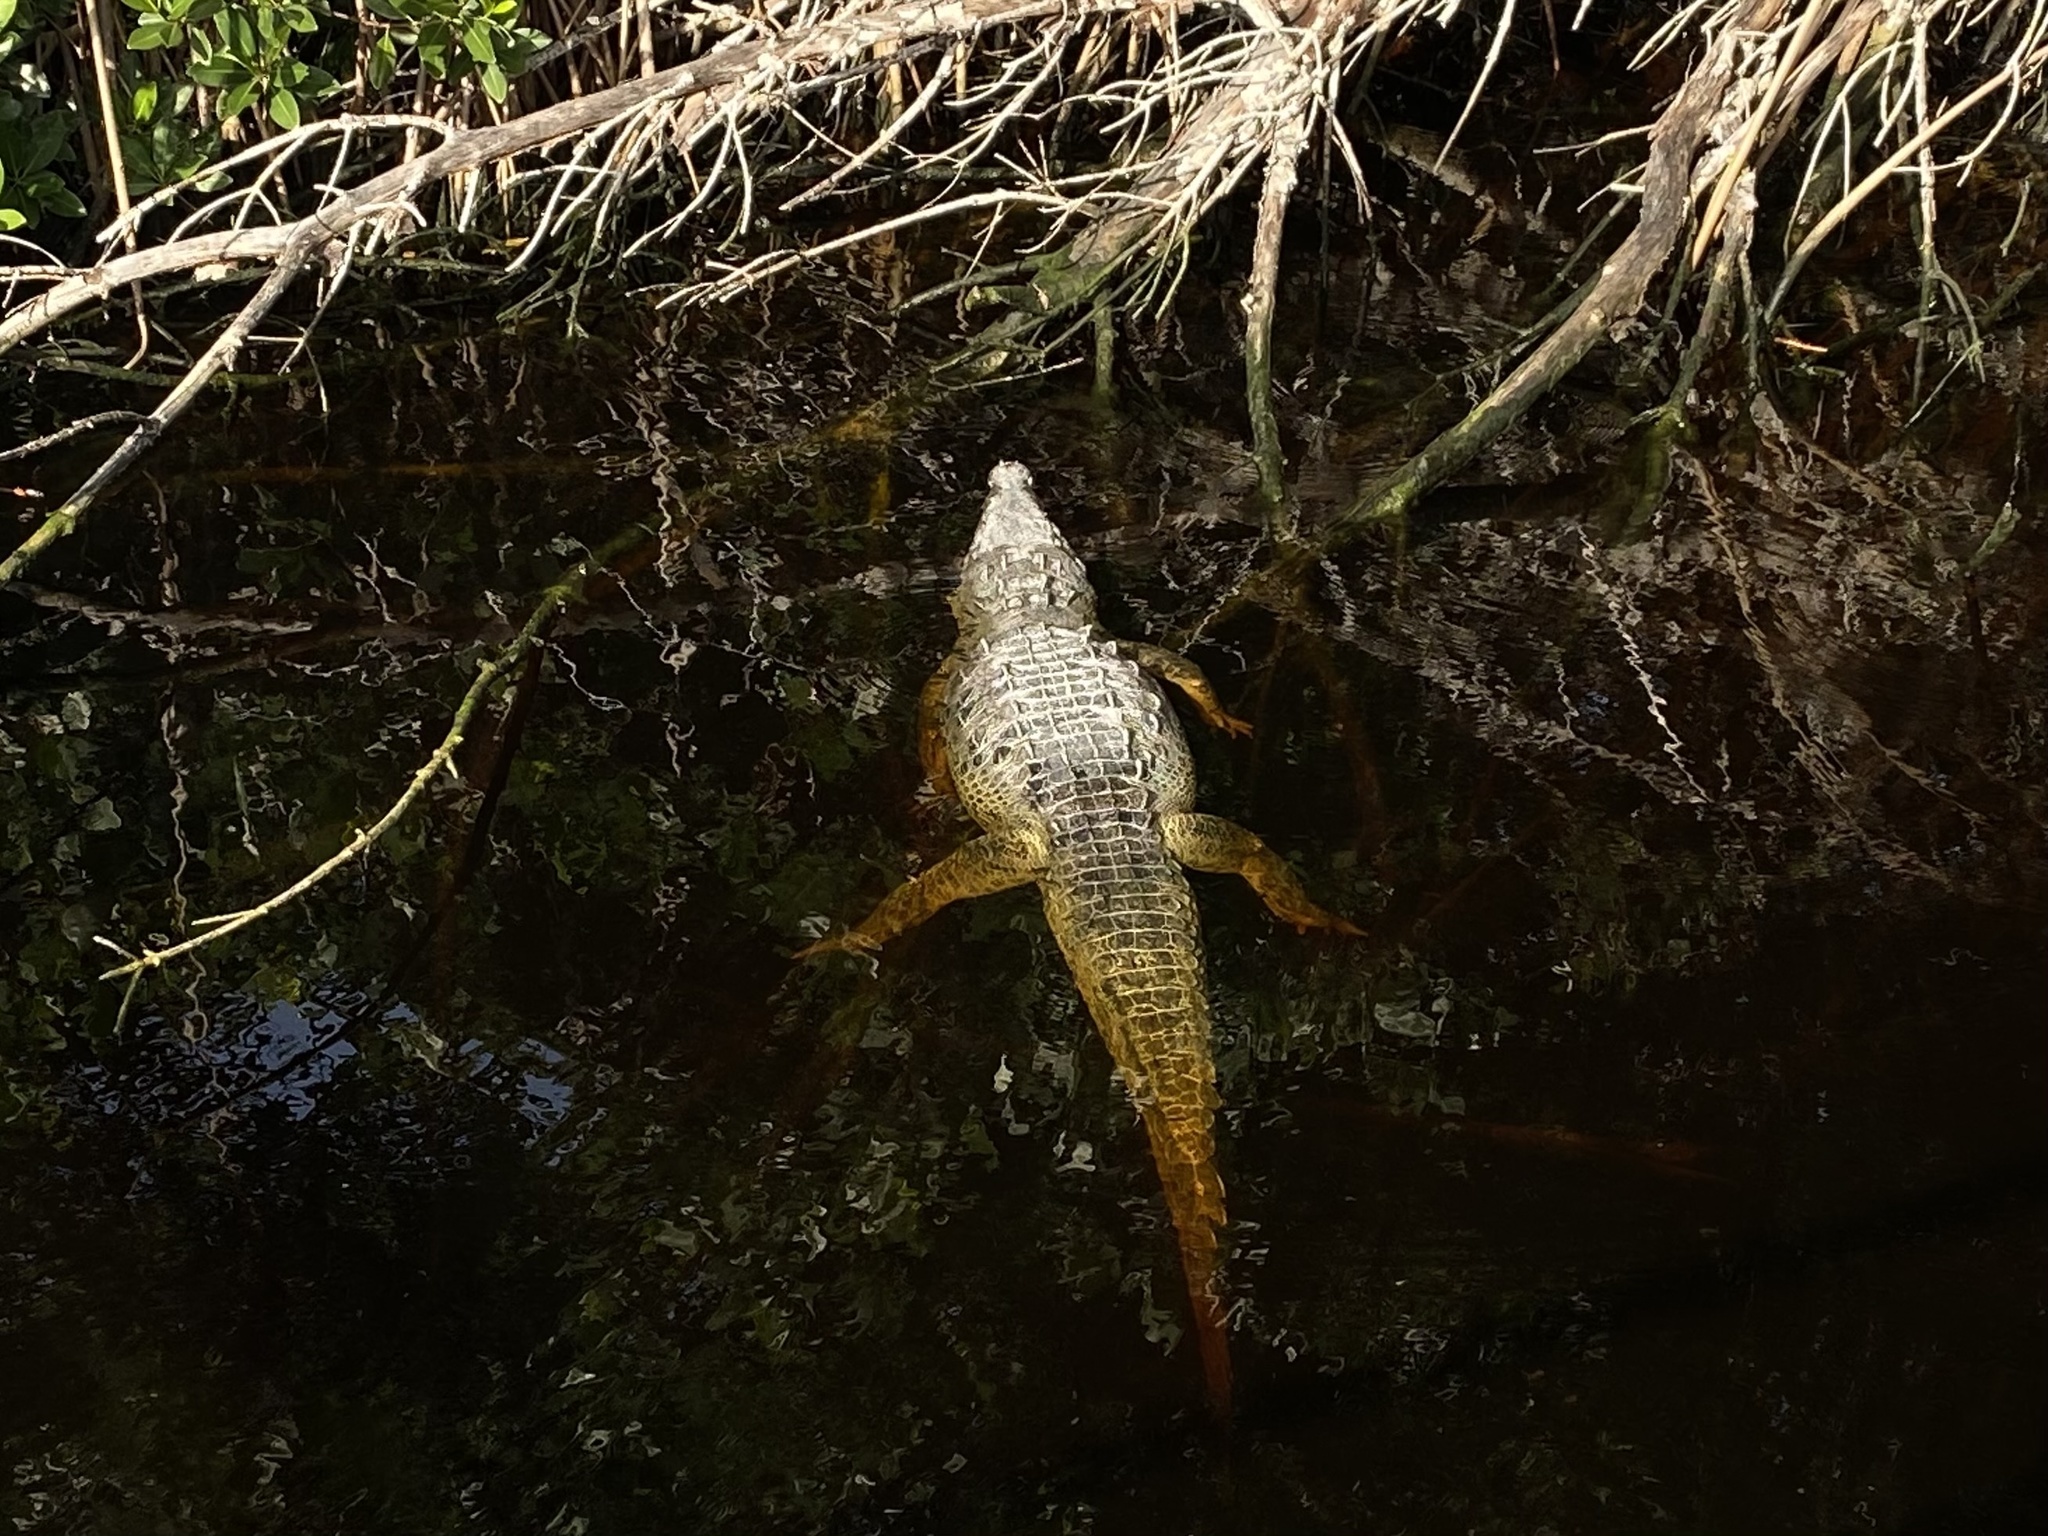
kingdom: Animalia
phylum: Chordata
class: Crocodylia
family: Crocodylidae
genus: Crocodylus
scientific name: Crocodylus acutus
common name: American crocodile
